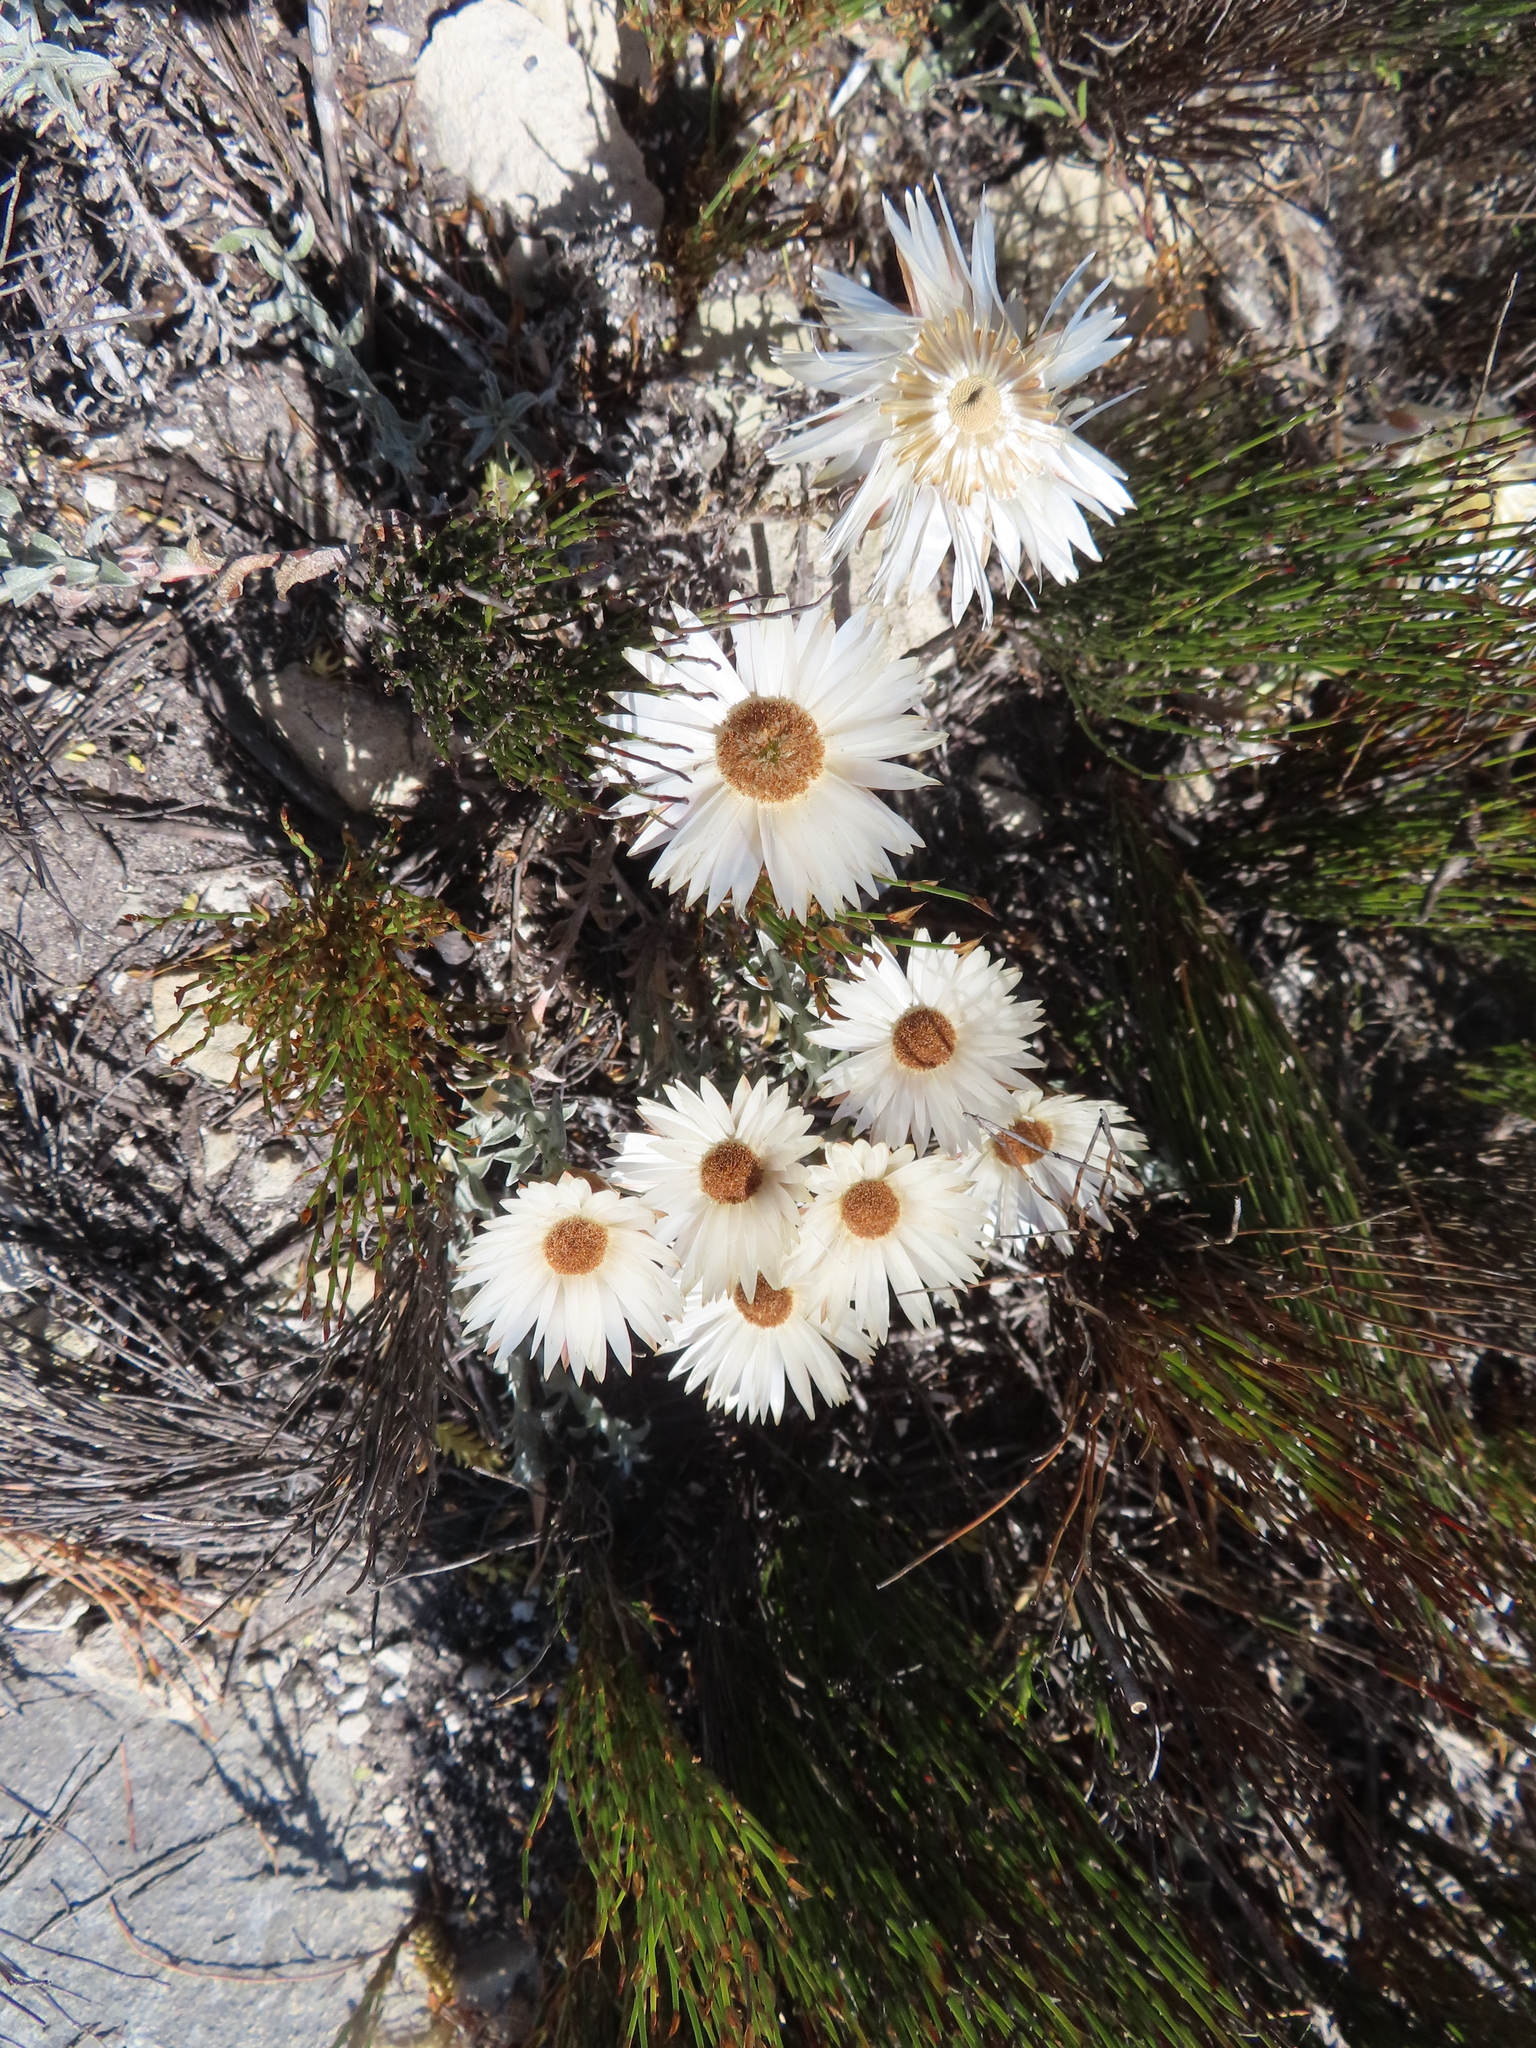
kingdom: Plantae
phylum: Tracheophyta
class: Magnoliopsida
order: Asterales
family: Asteraceae
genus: Helichrysum
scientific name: Helichrysum retortum
